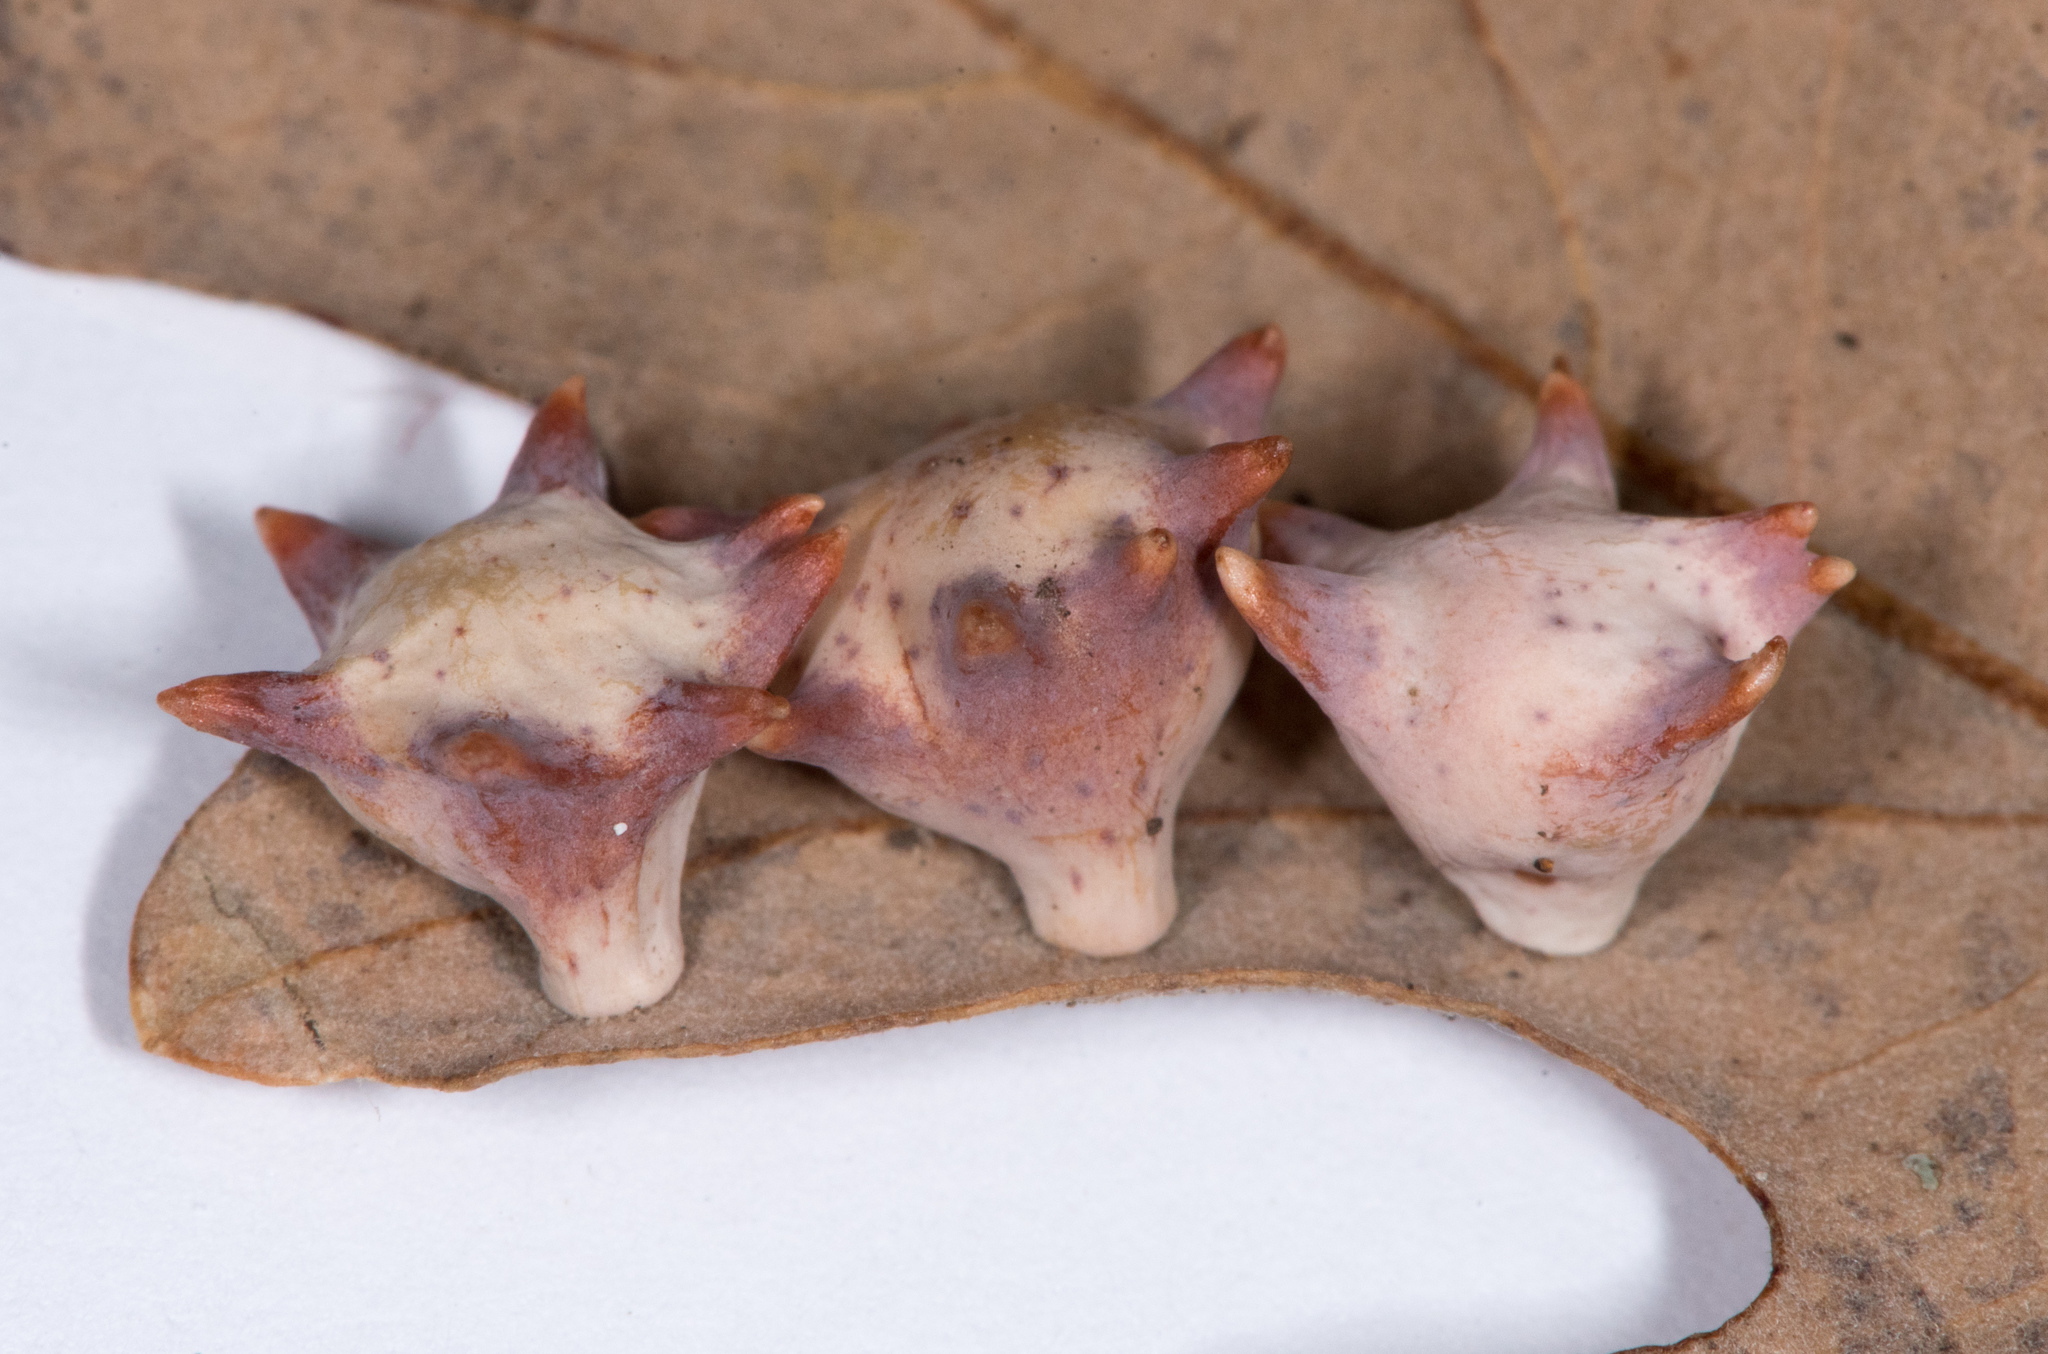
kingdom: Animalia
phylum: Arthropoda
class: Insecta
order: Hymenoptera
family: Cynipidae
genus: Cynips
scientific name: Cynips douglasi
